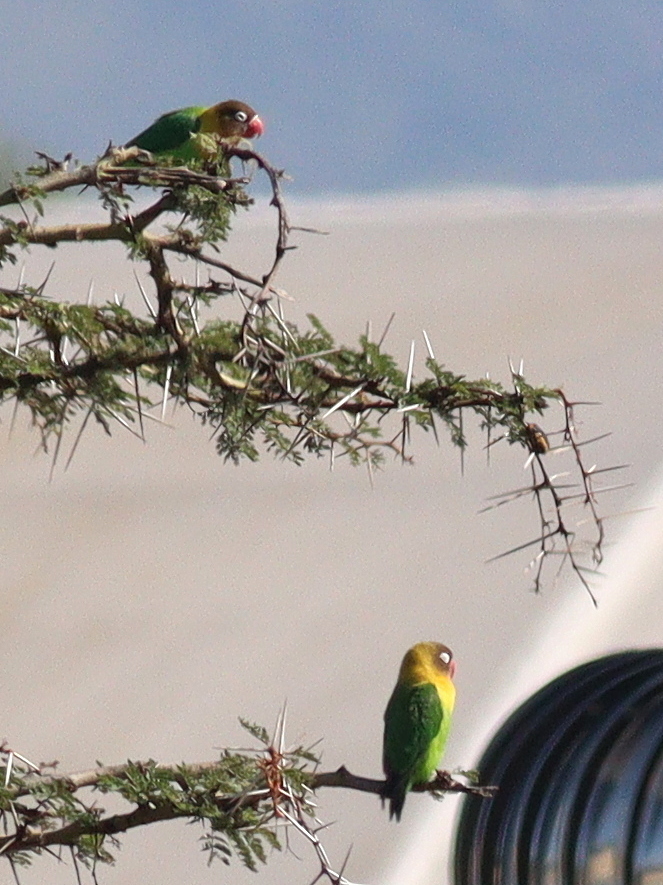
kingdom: Animalia
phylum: Chordata
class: Aves
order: Psittaciformes
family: Psittacidae
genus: Agapornis
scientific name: Agapornis
